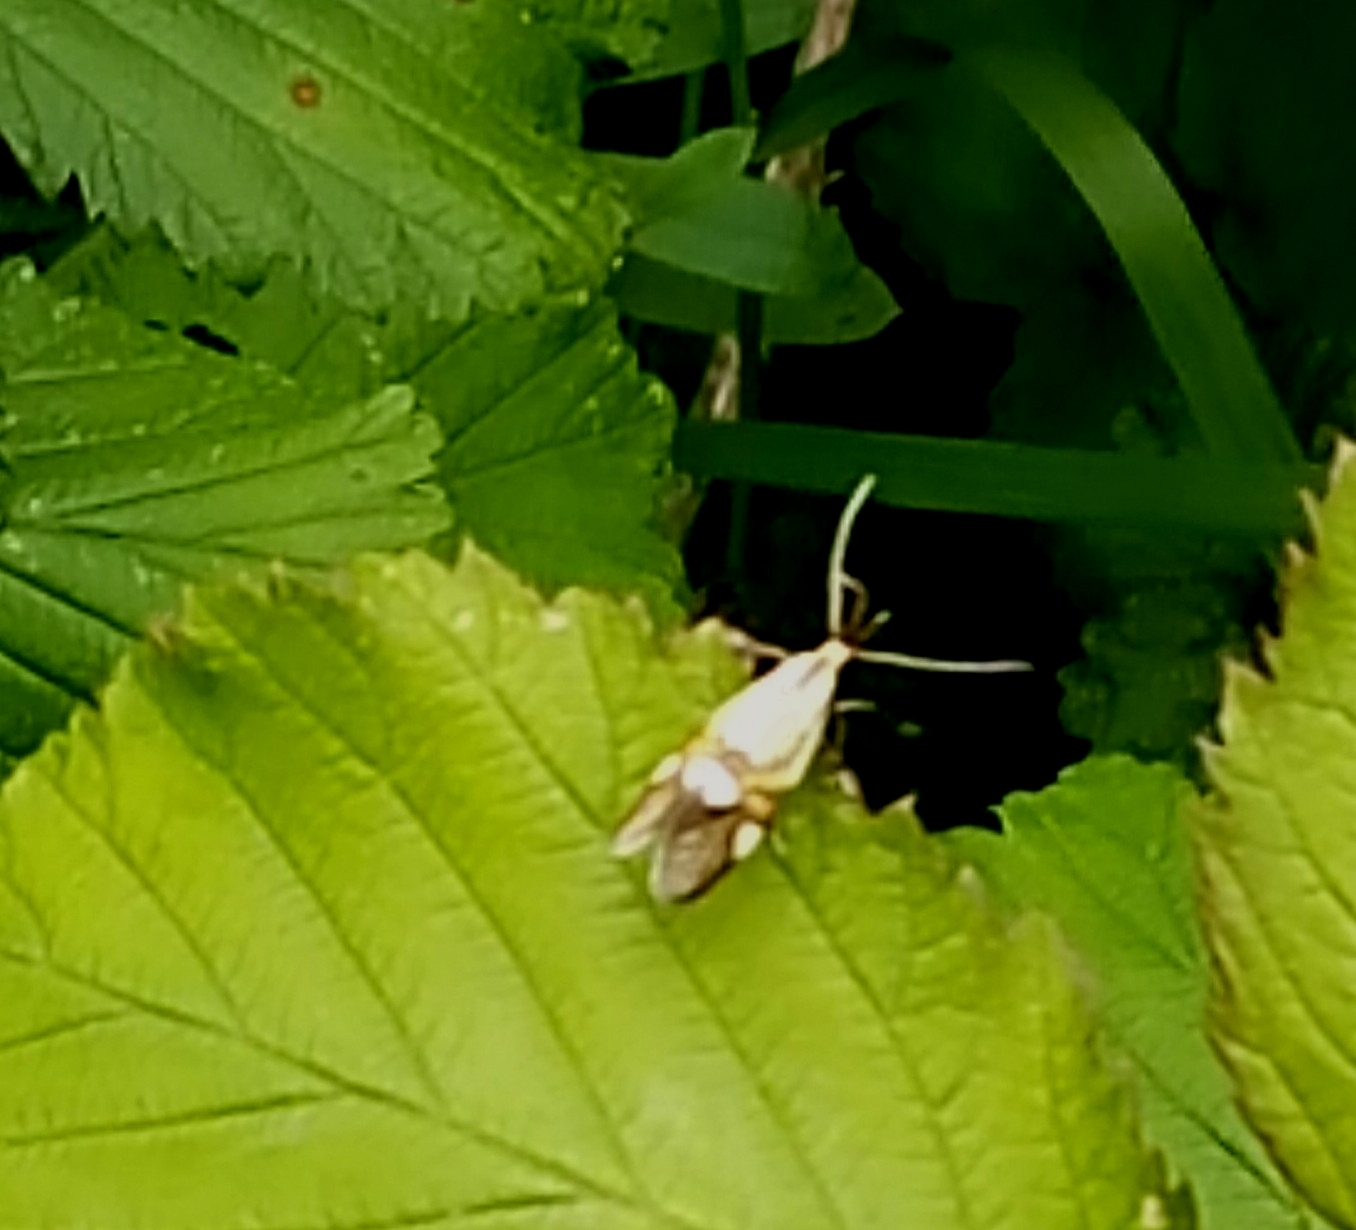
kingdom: Animalia
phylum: Arthropoda
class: Insecta
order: Lepidoptera
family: Oecophoridae
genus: Oecophora
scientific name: Oecophora Alabonia geoffrella
